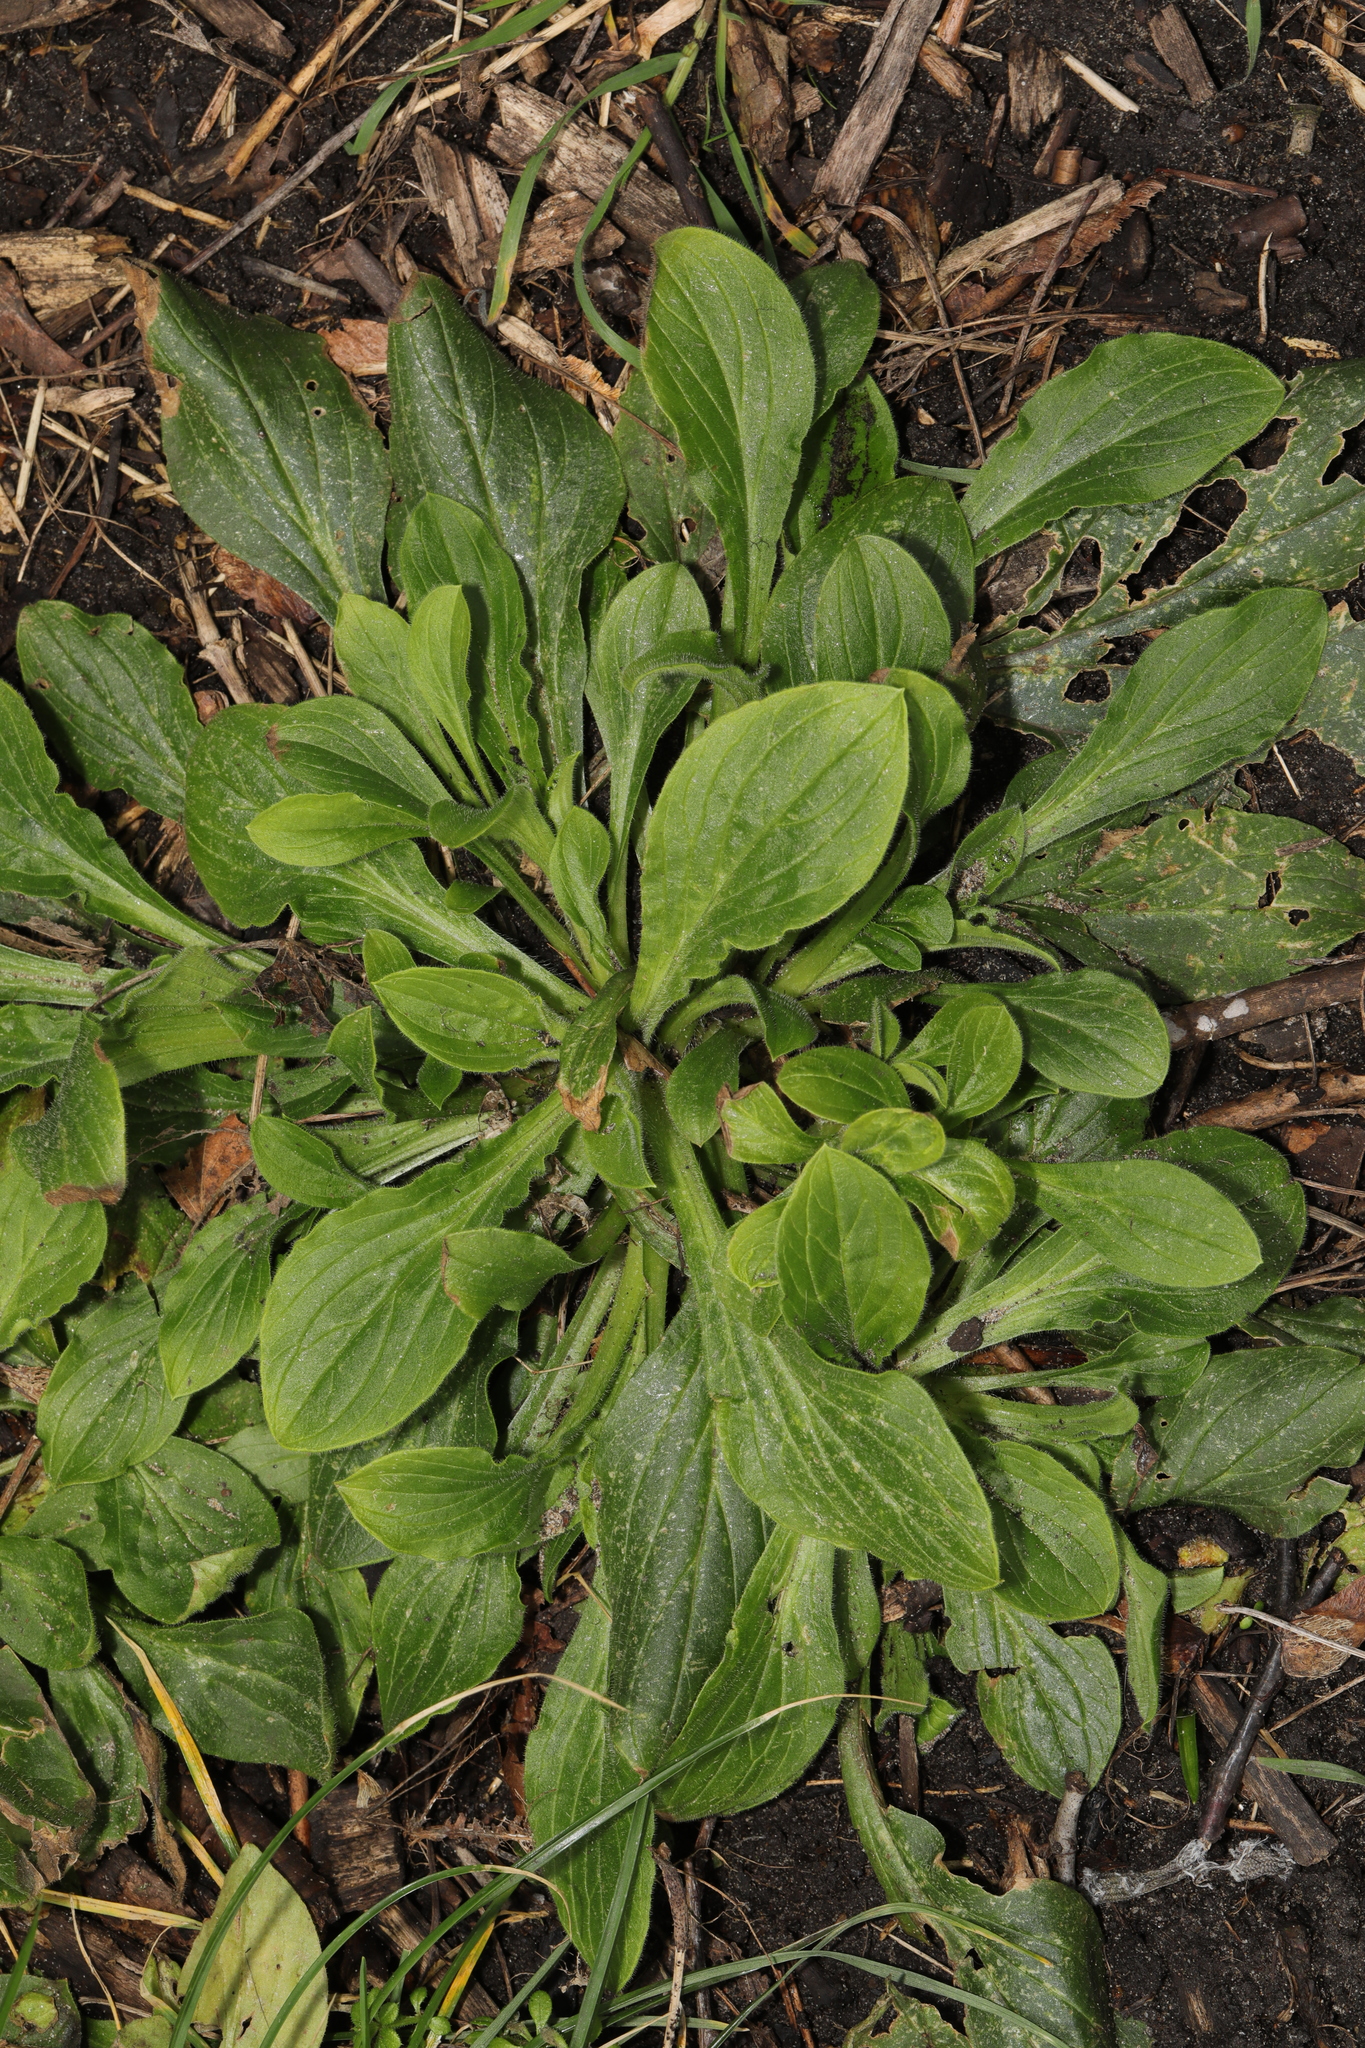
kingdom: Plantae
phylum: Tracheophyta
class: Magnoliopsida
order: Caryophyllales
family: Caryophyllaceae
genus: Silene
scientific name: Silene dioica
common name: Red campion
